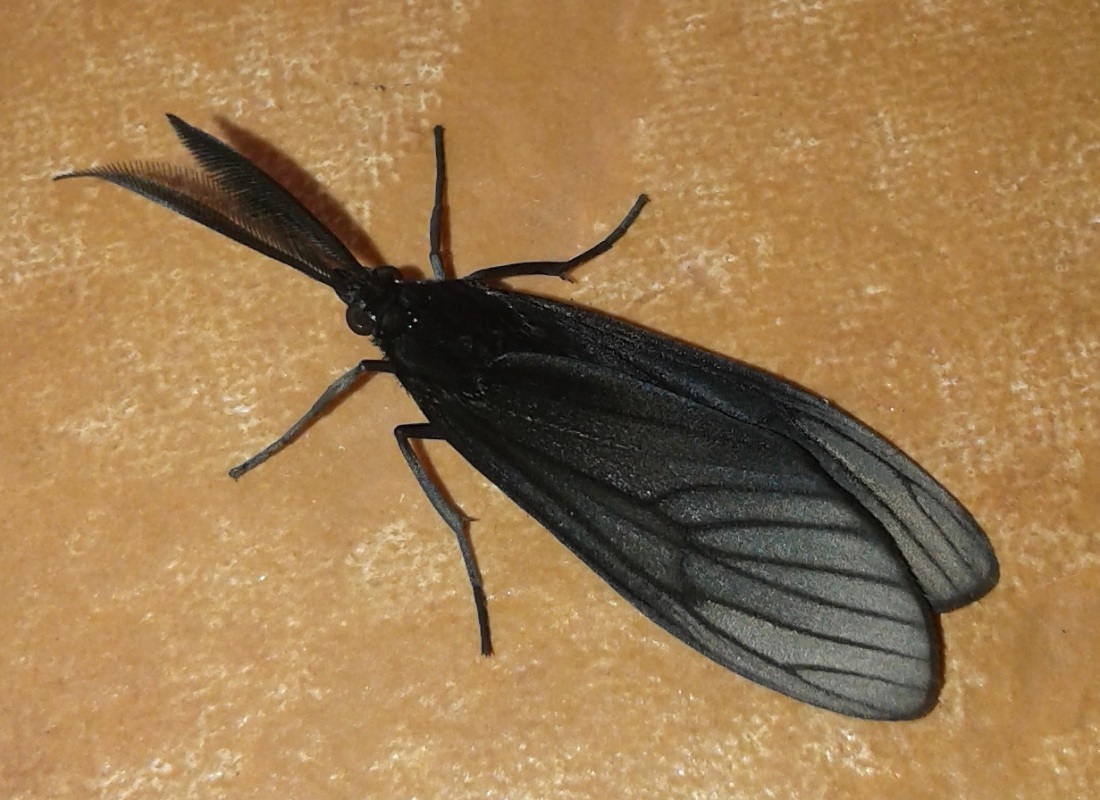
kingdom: Animalia
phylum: Arthropoda
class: Insecta
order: Lepidoptera
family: Erebidae
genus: Sciopsyche
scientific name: Sciopsyche tropica
